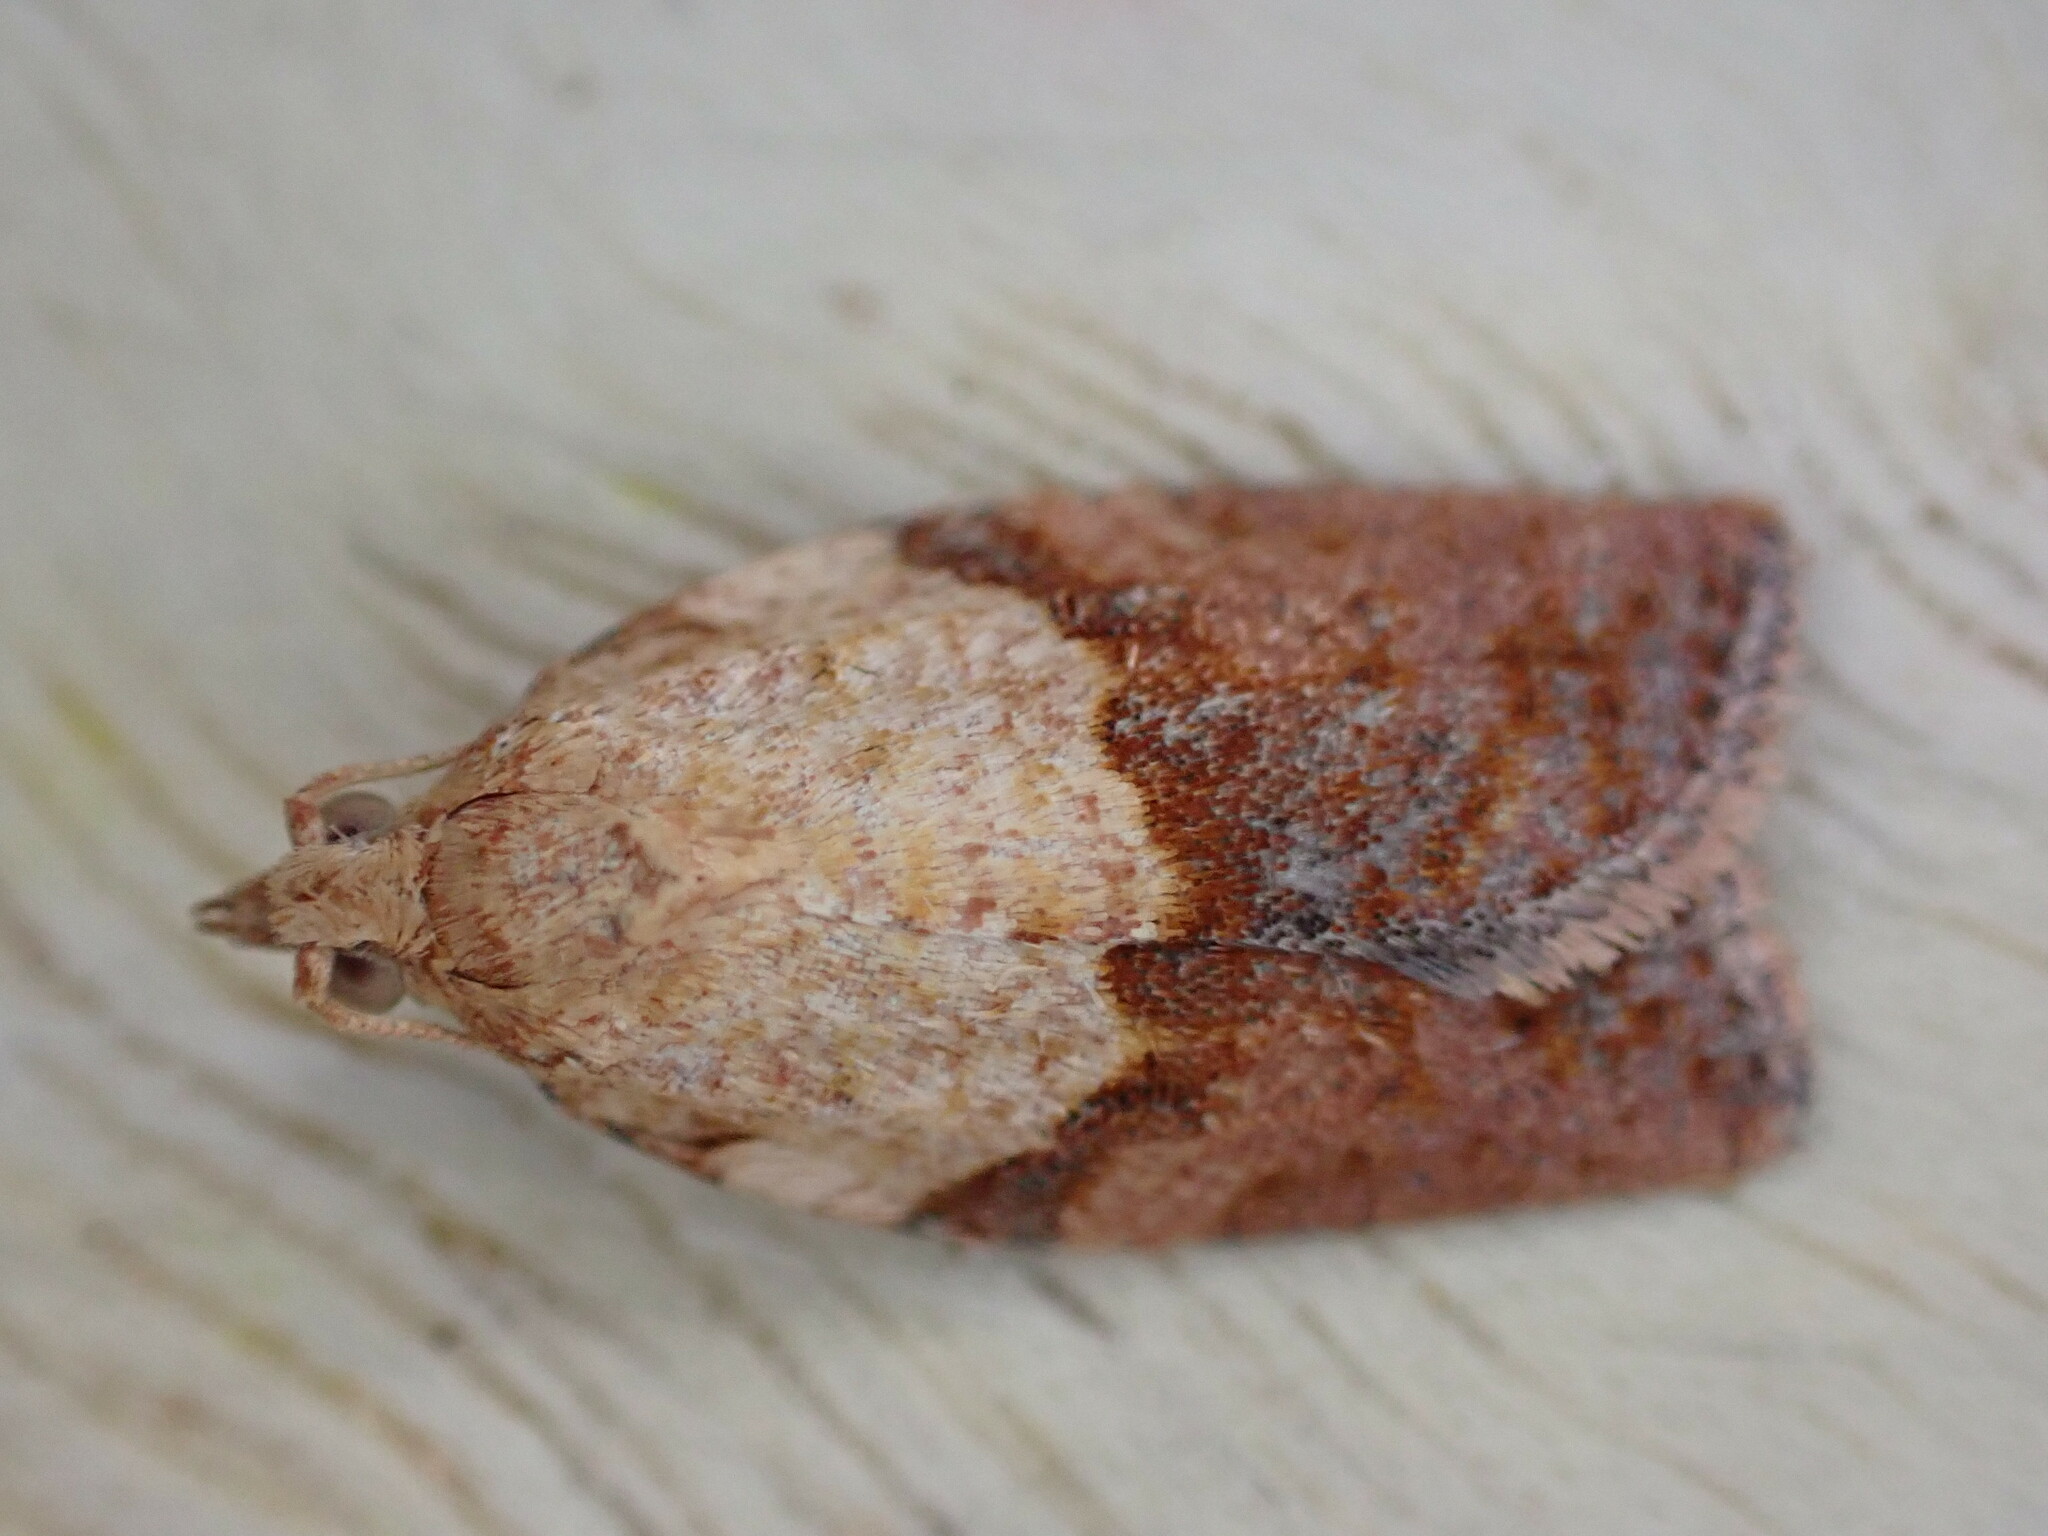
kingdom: Animalia
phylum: Arthropoda
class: Insecta
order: Lepidoptera
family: Tortricidae
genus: Epiphyas
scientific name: Epiphyas postvittana
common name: Light brown apple moth
